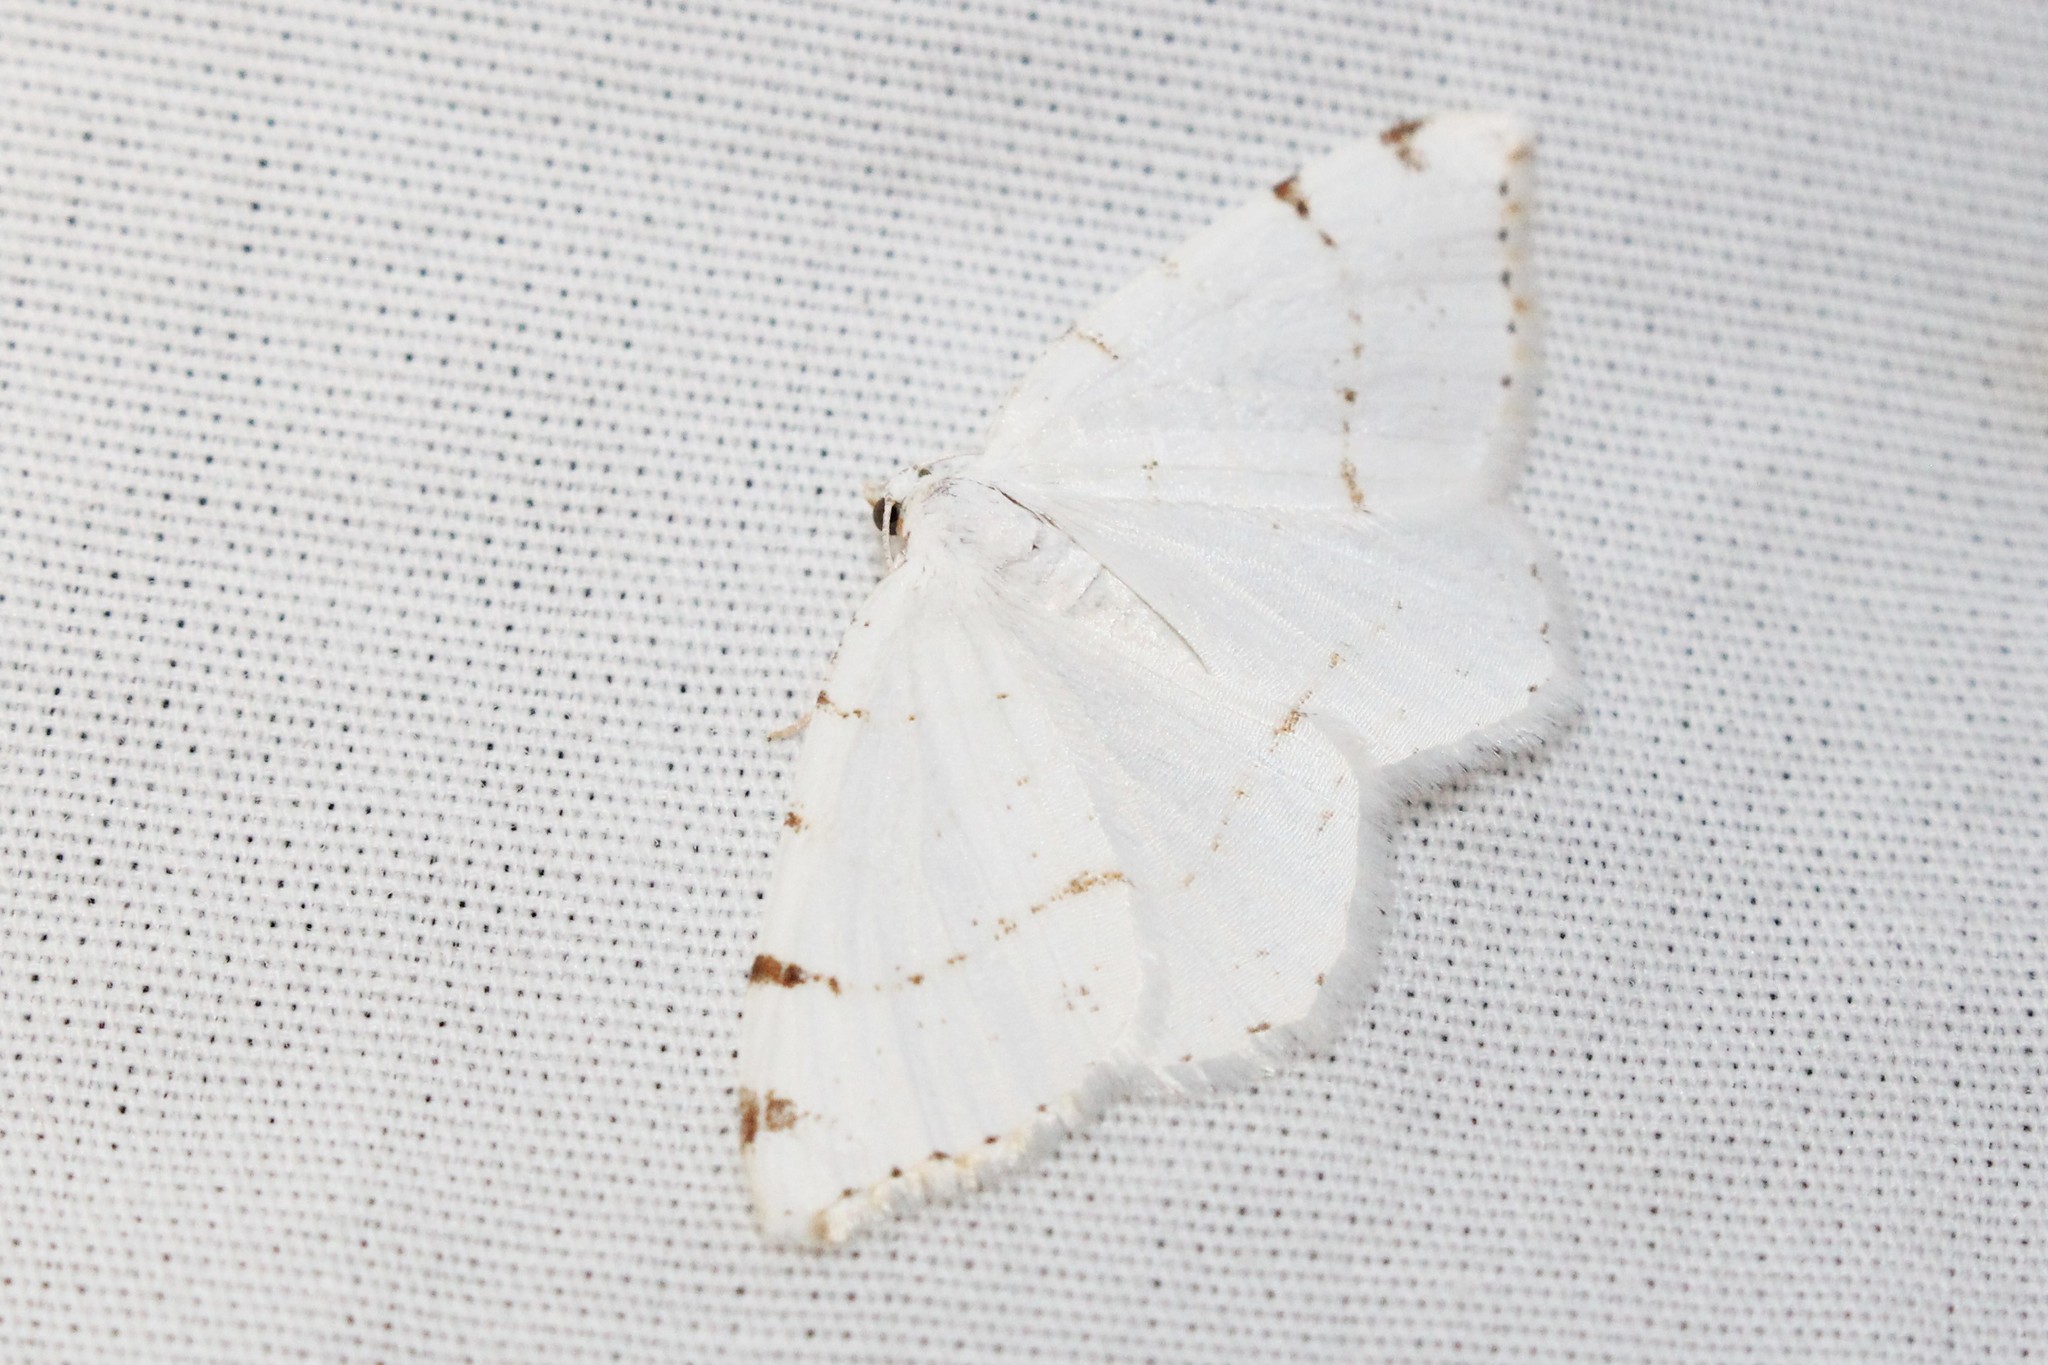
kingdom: Animalia
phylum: Arthropoda
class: Insecta
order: Lepidoptera
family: Geometridae
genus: Macaria
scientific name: Macaria pustularia
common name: Lesser maple spanworm moth
